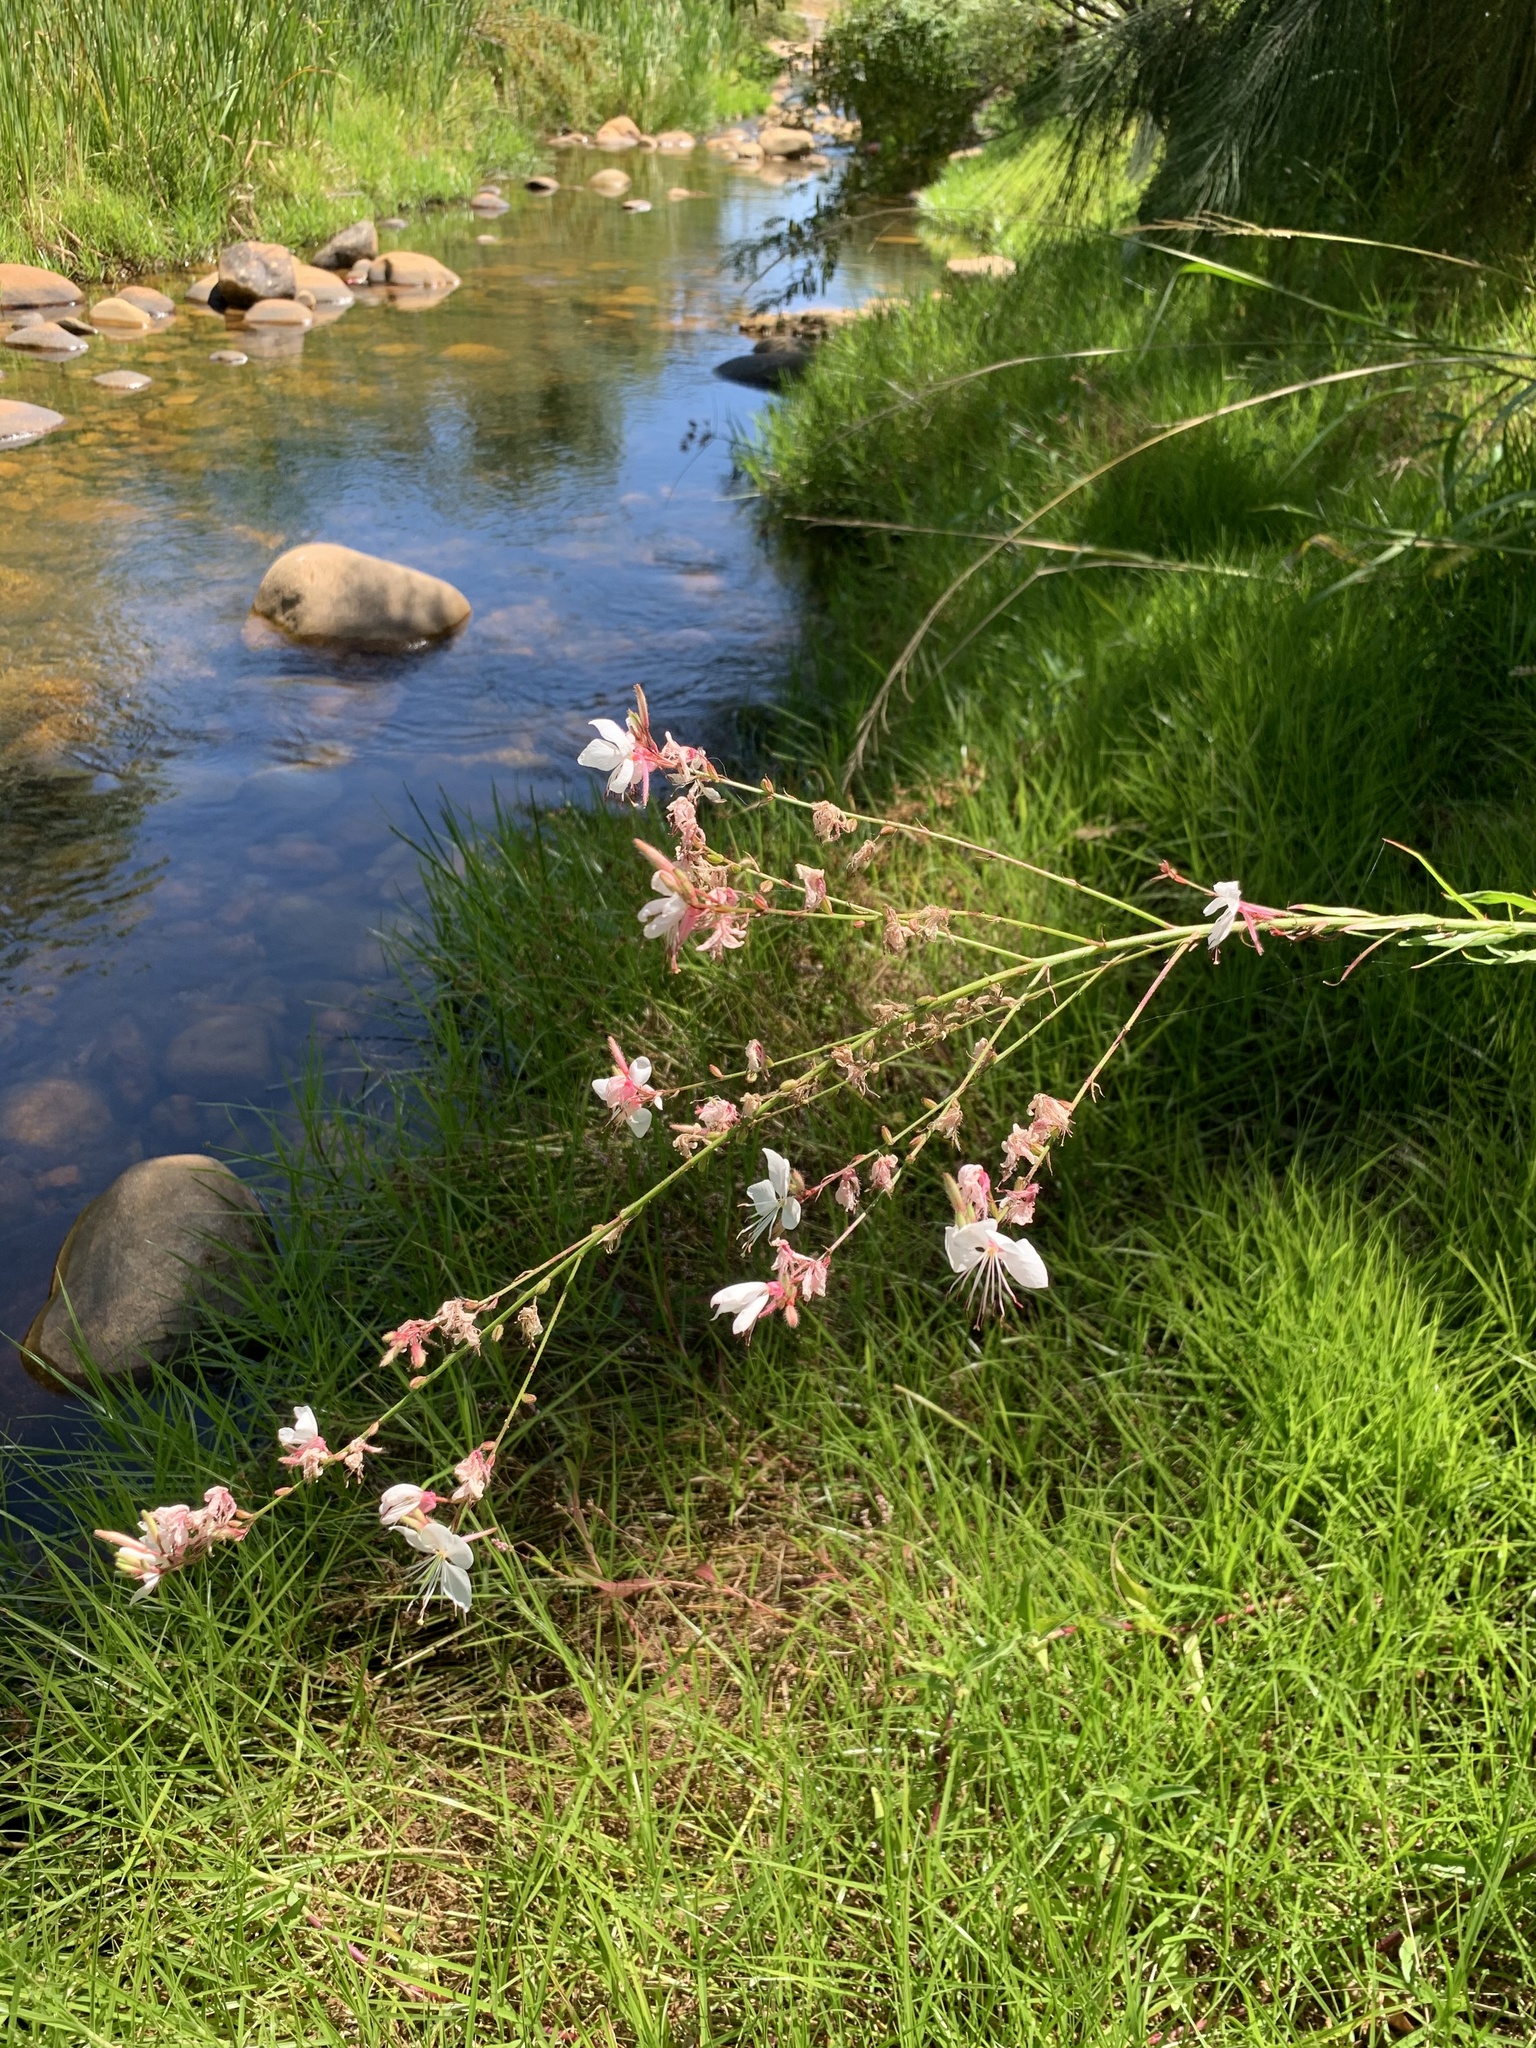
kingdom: Plantae
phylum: Tracheophyta
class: Magnoliopsida
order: Myrtales
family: Onagraceae
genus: Oenothera
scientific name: Oenothera lindheimeri
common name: Lindheimer's beeblossom
